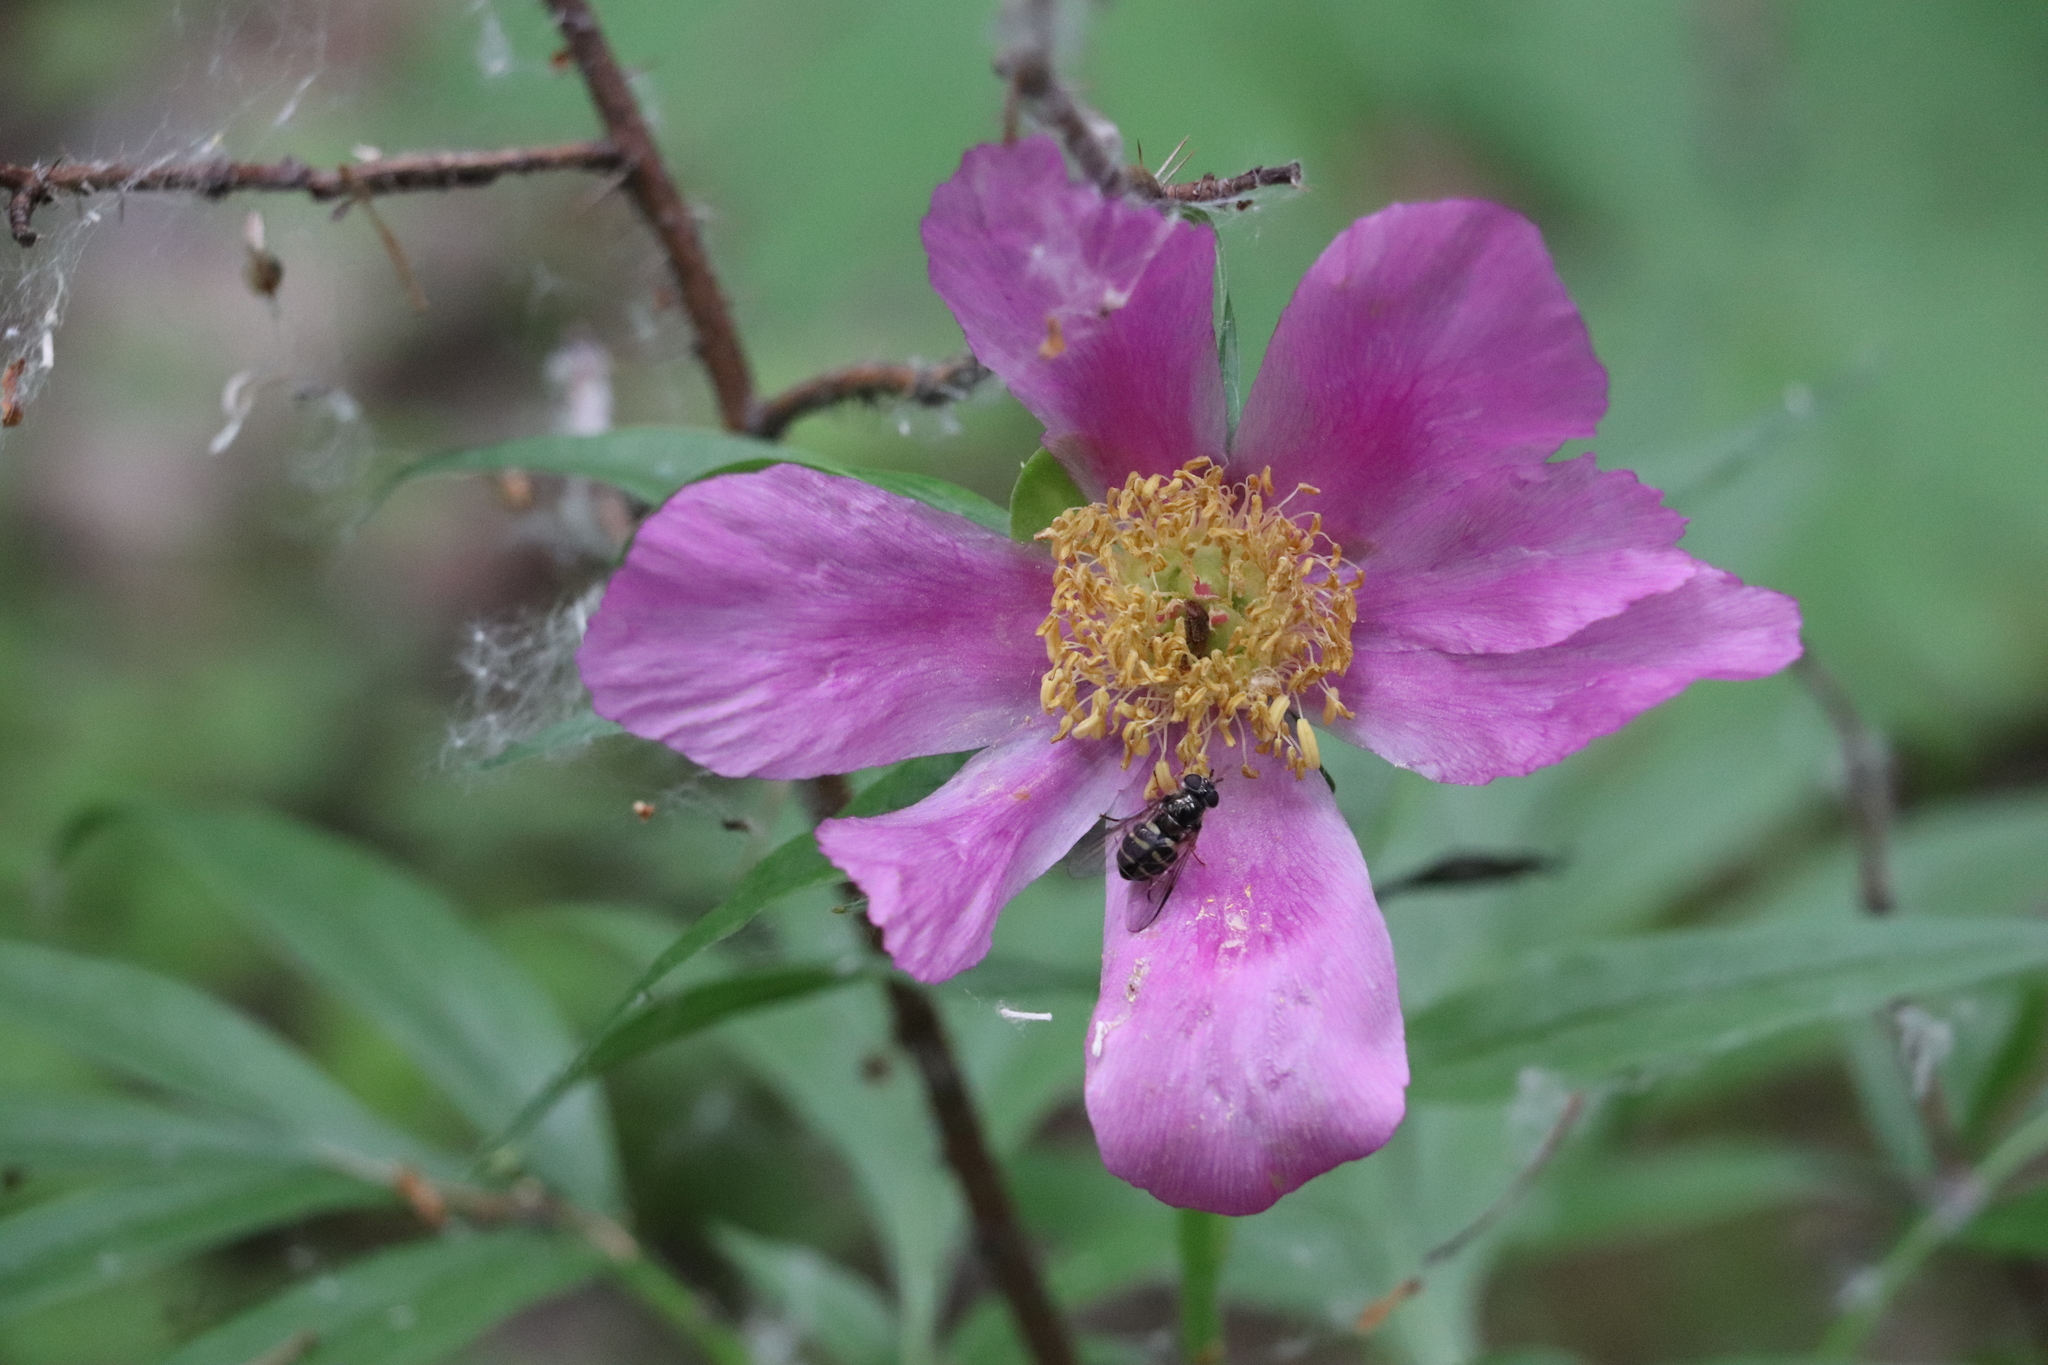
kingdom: Plantae
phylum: Tracheophyta
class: Magnoliopsida
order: Saxifragales
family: Paeoniaceae
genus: Paeonia
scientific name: Paeonia anomala
